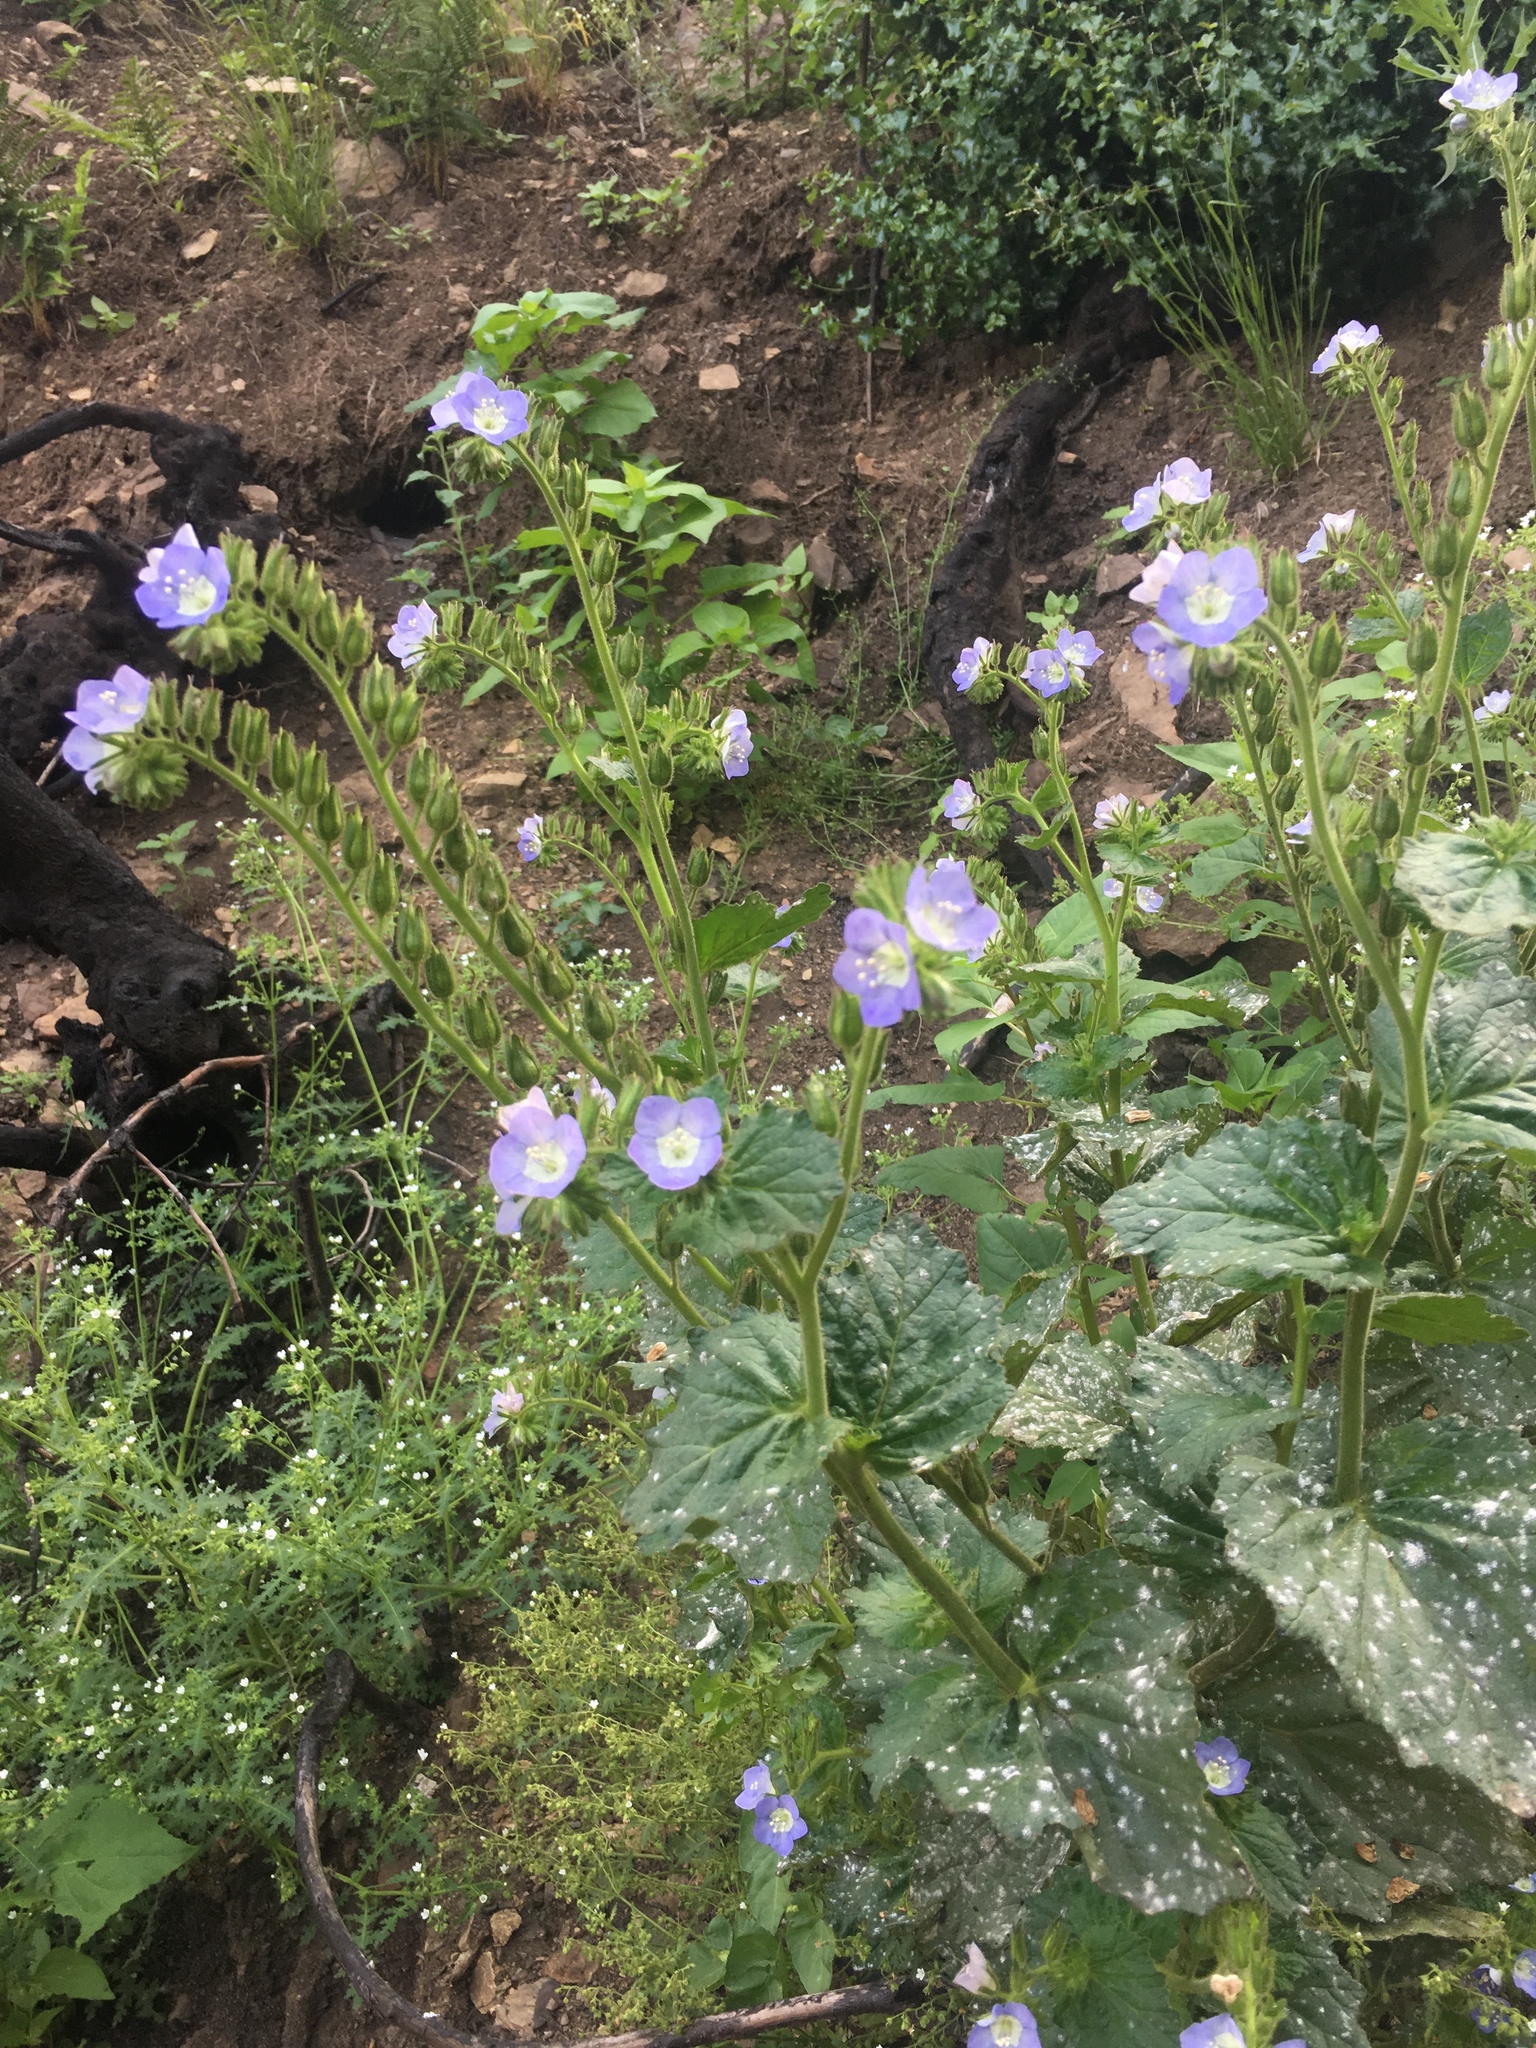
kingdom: Plantae
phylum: Tracheophyta
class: Magnoliopsida
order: Boraginales
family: Hydrophyllaceae
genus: Phacelia
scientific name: Phacelia viscida
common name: Sticky phacelia
